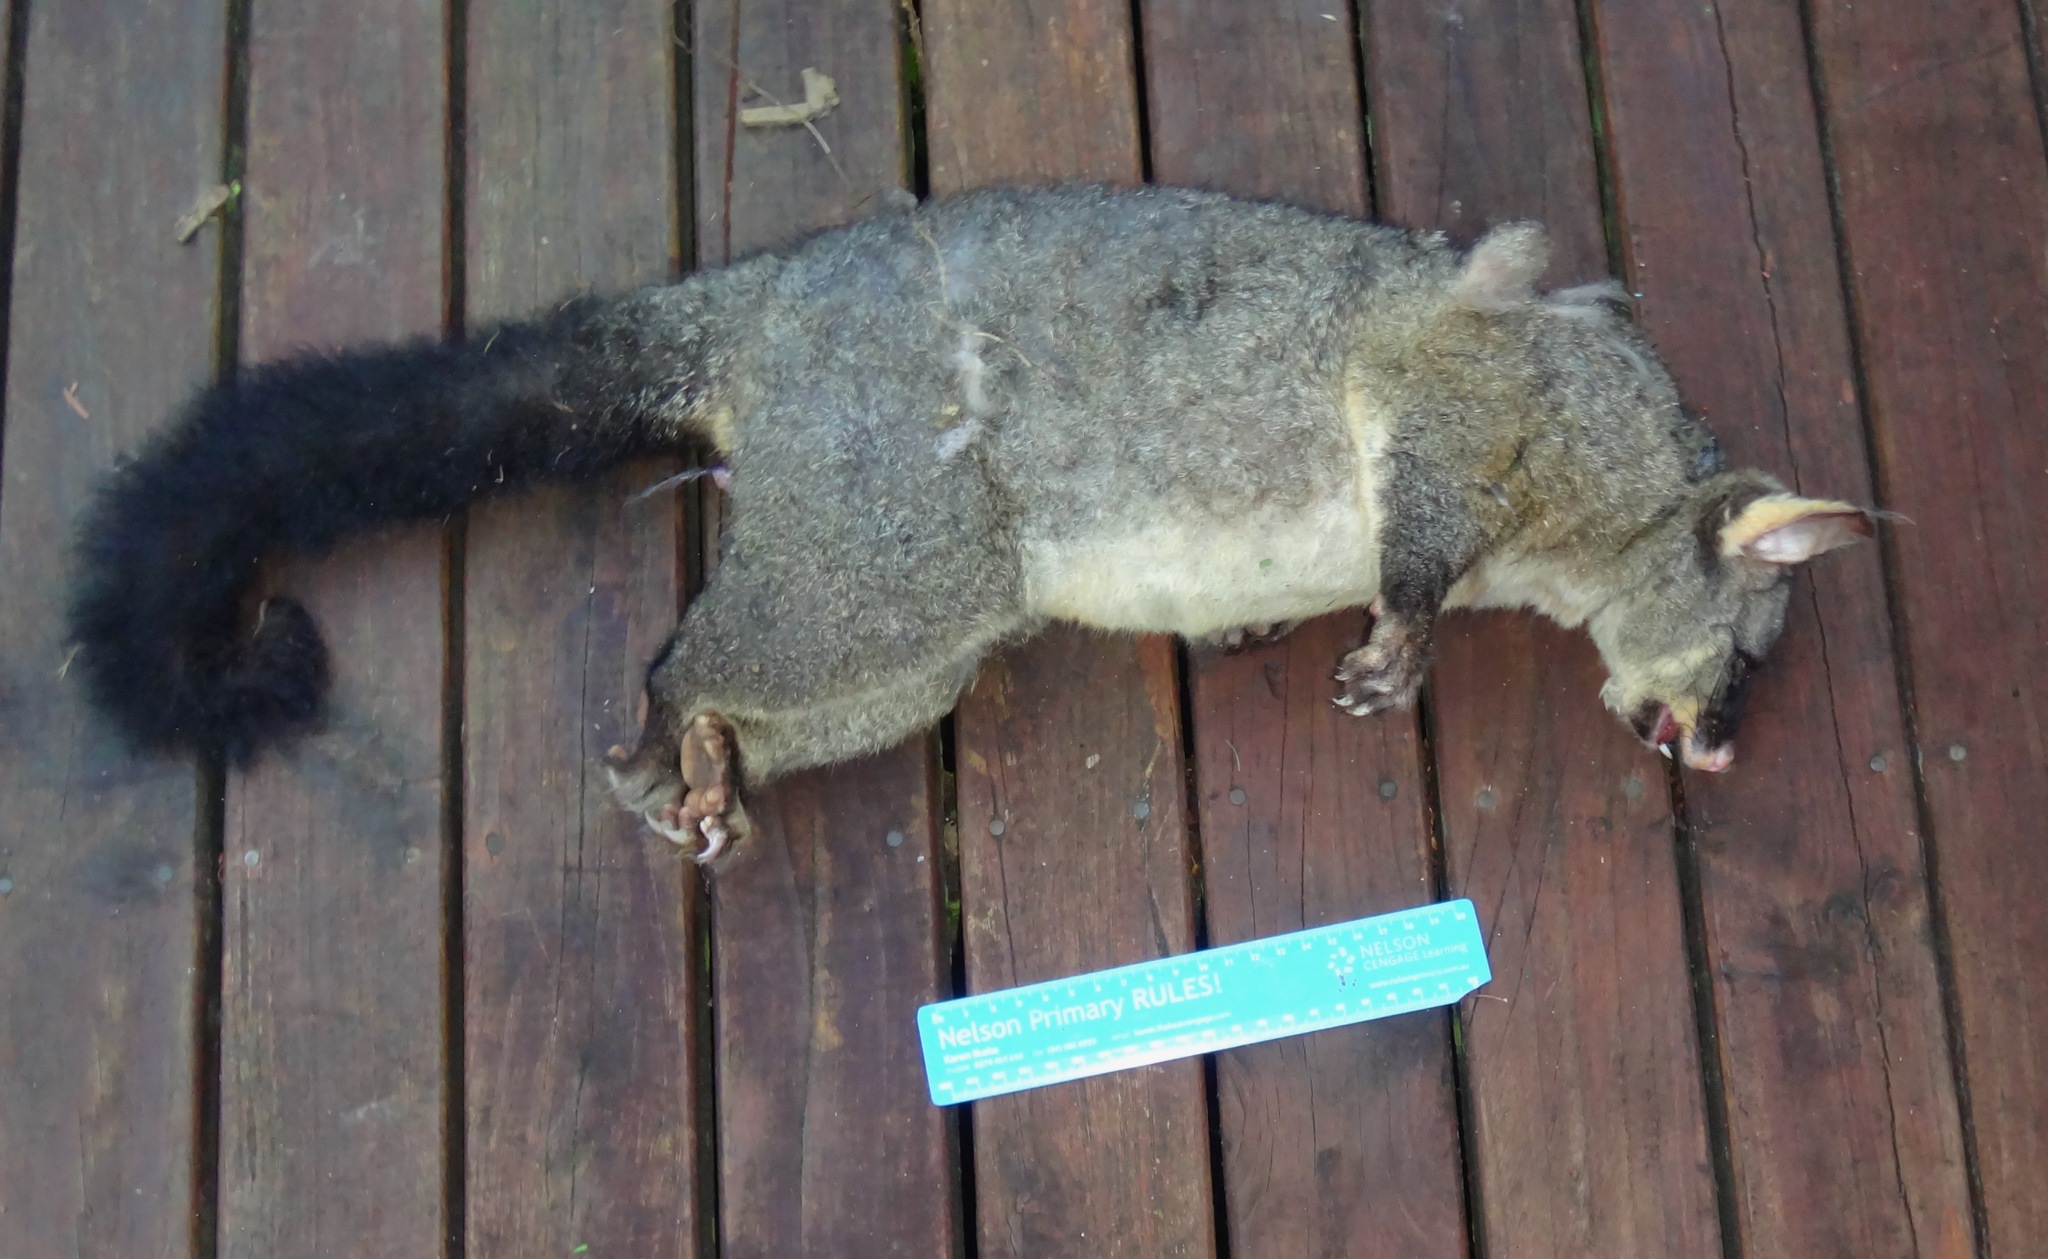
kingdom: Animalia
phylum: Chordata
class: Mammalia
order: Diprotodontia
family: Phalangeridae
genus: Trichosurus
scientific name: Trichosurus vulpecula
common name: Common brushtail
